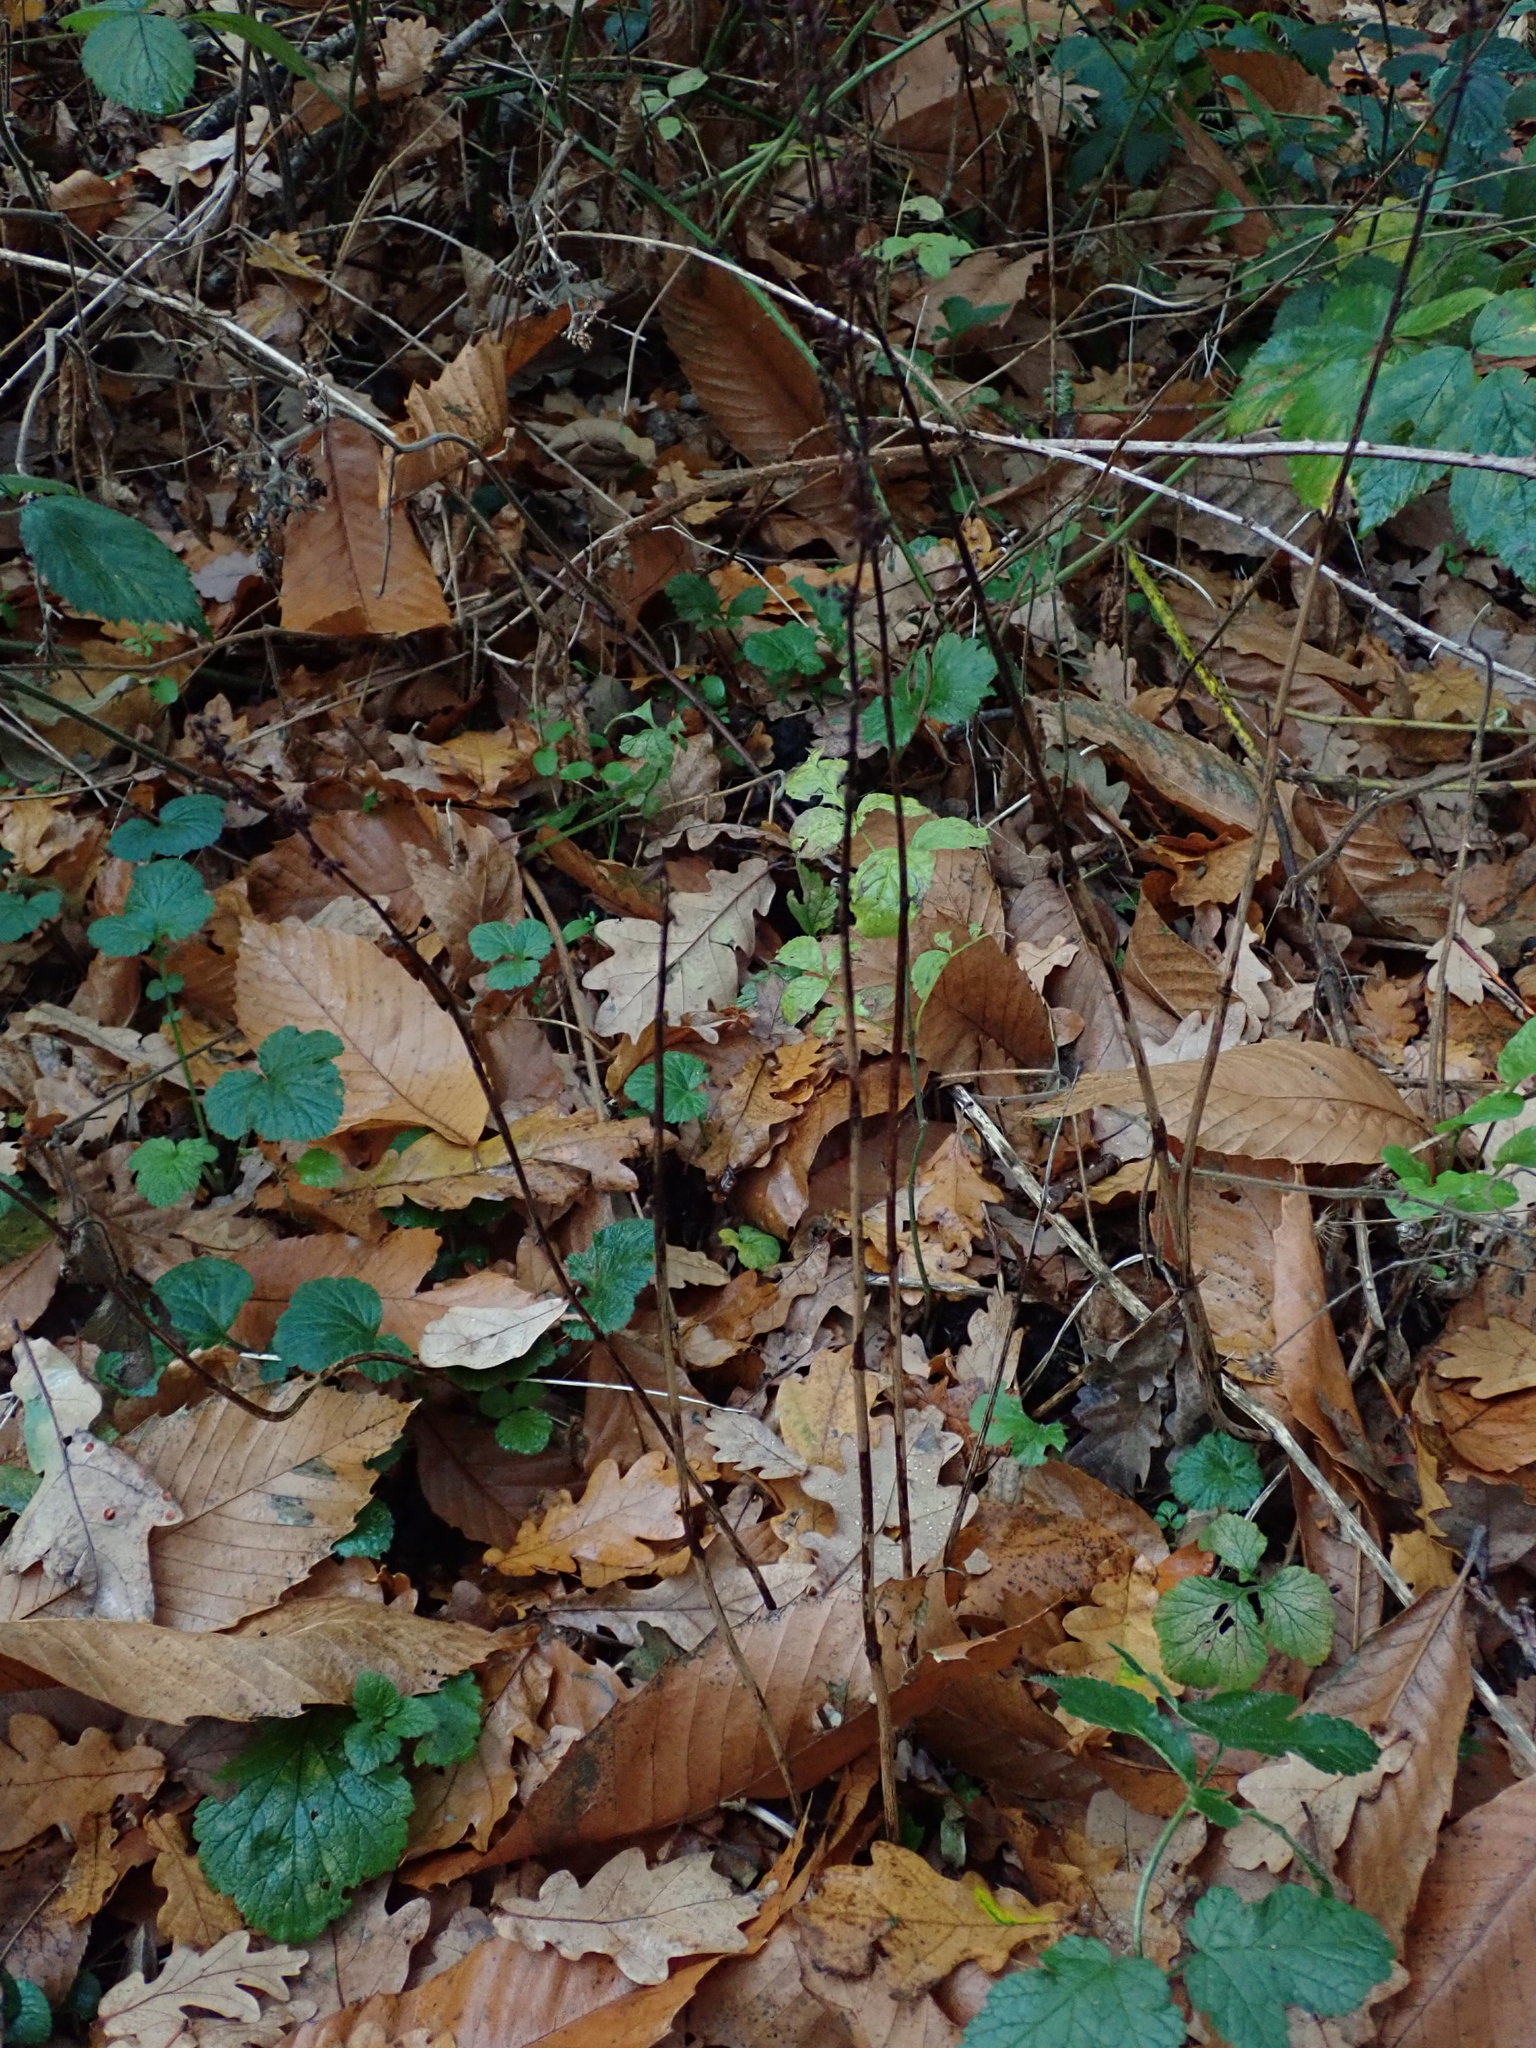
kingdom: Plantae
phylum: Tracheophyta
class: Magnoliopsida
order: Caryophyllales
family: Polygonaceae
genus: Rumex
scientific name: Rumex sanguineus
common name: Wood dock
